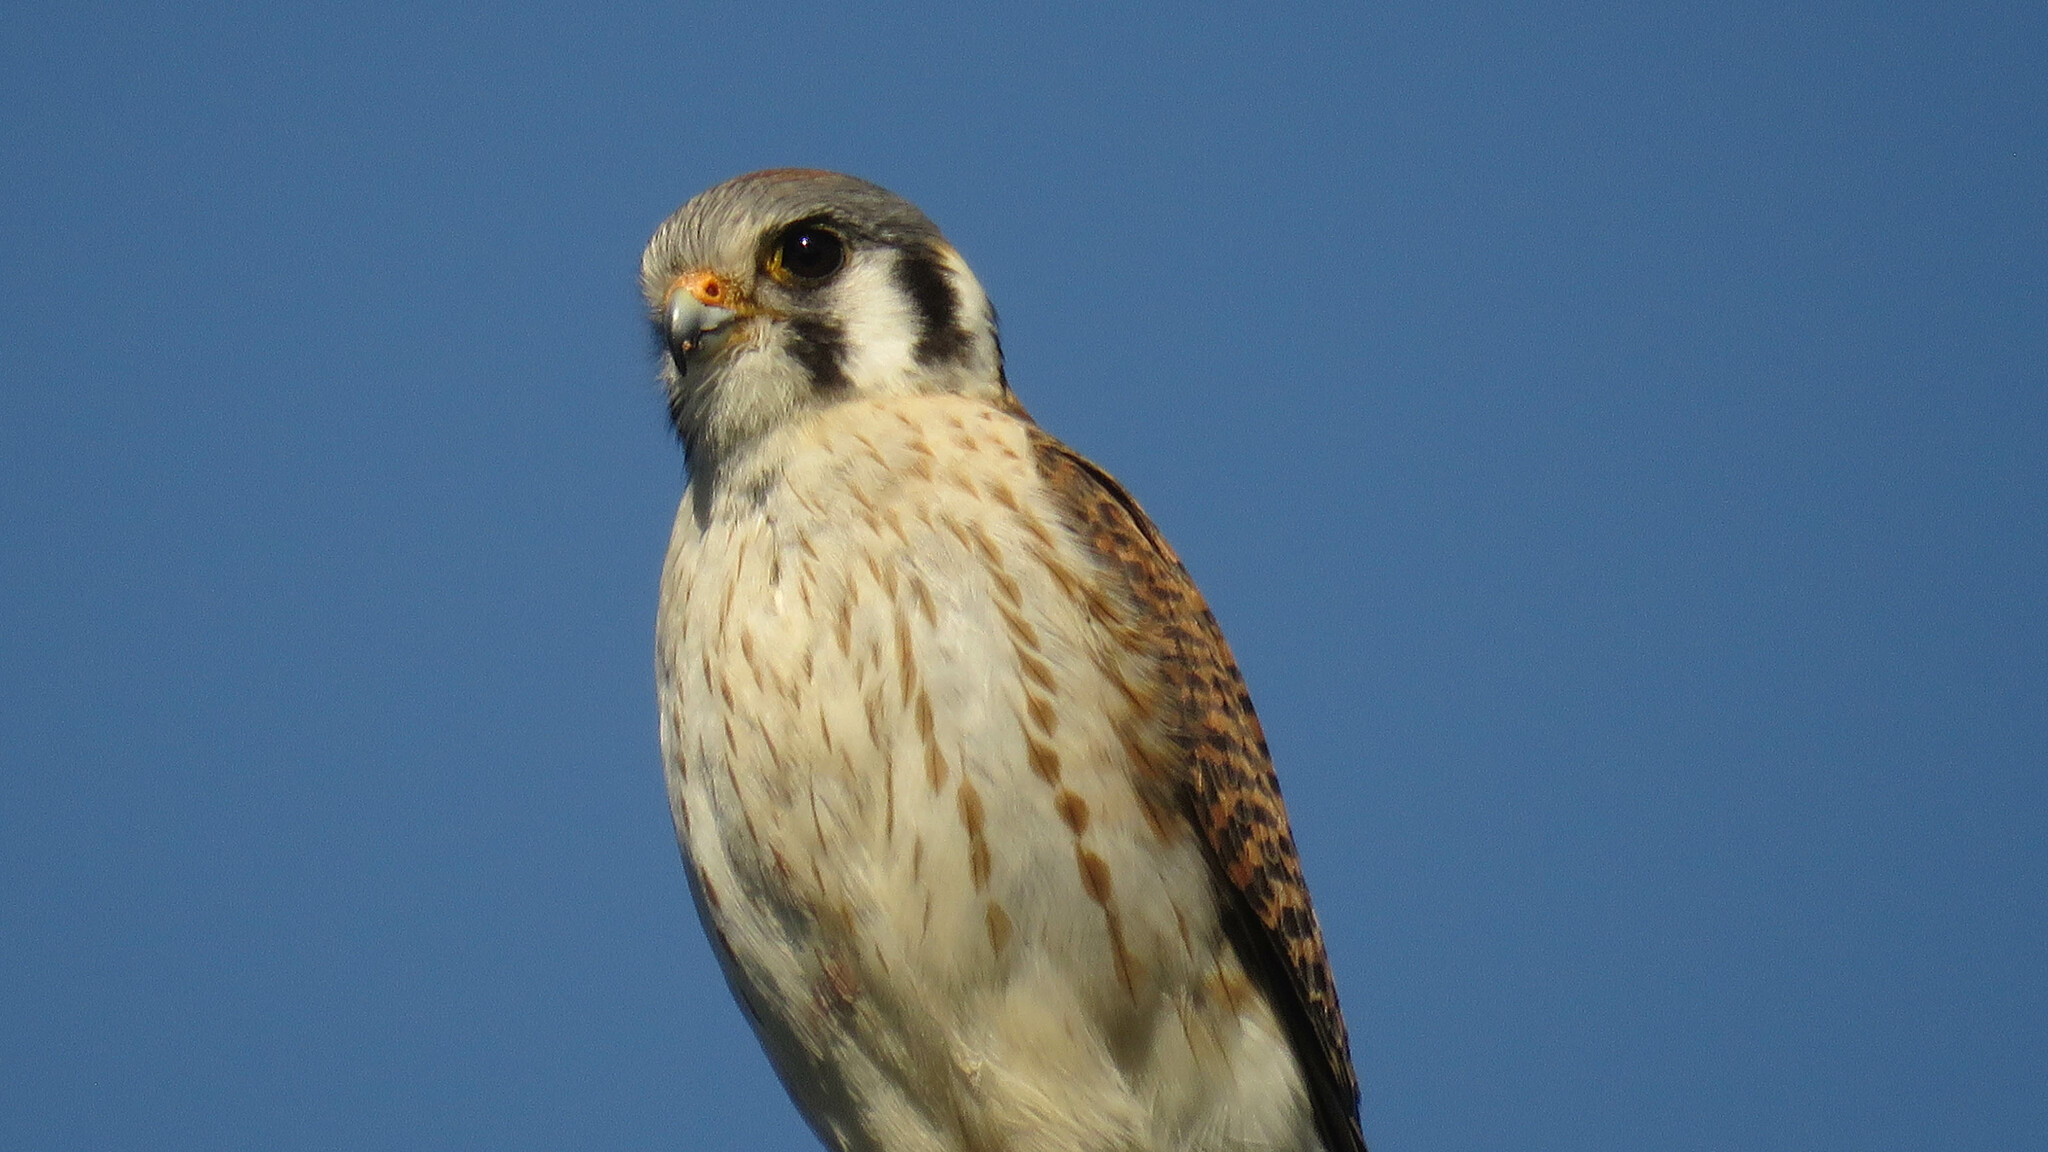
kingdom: Animalia
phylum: Chordata
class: Aves
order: Falconiformes
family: Falconidae
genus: Falco
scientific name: Falco sparverius
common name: American kestrel
